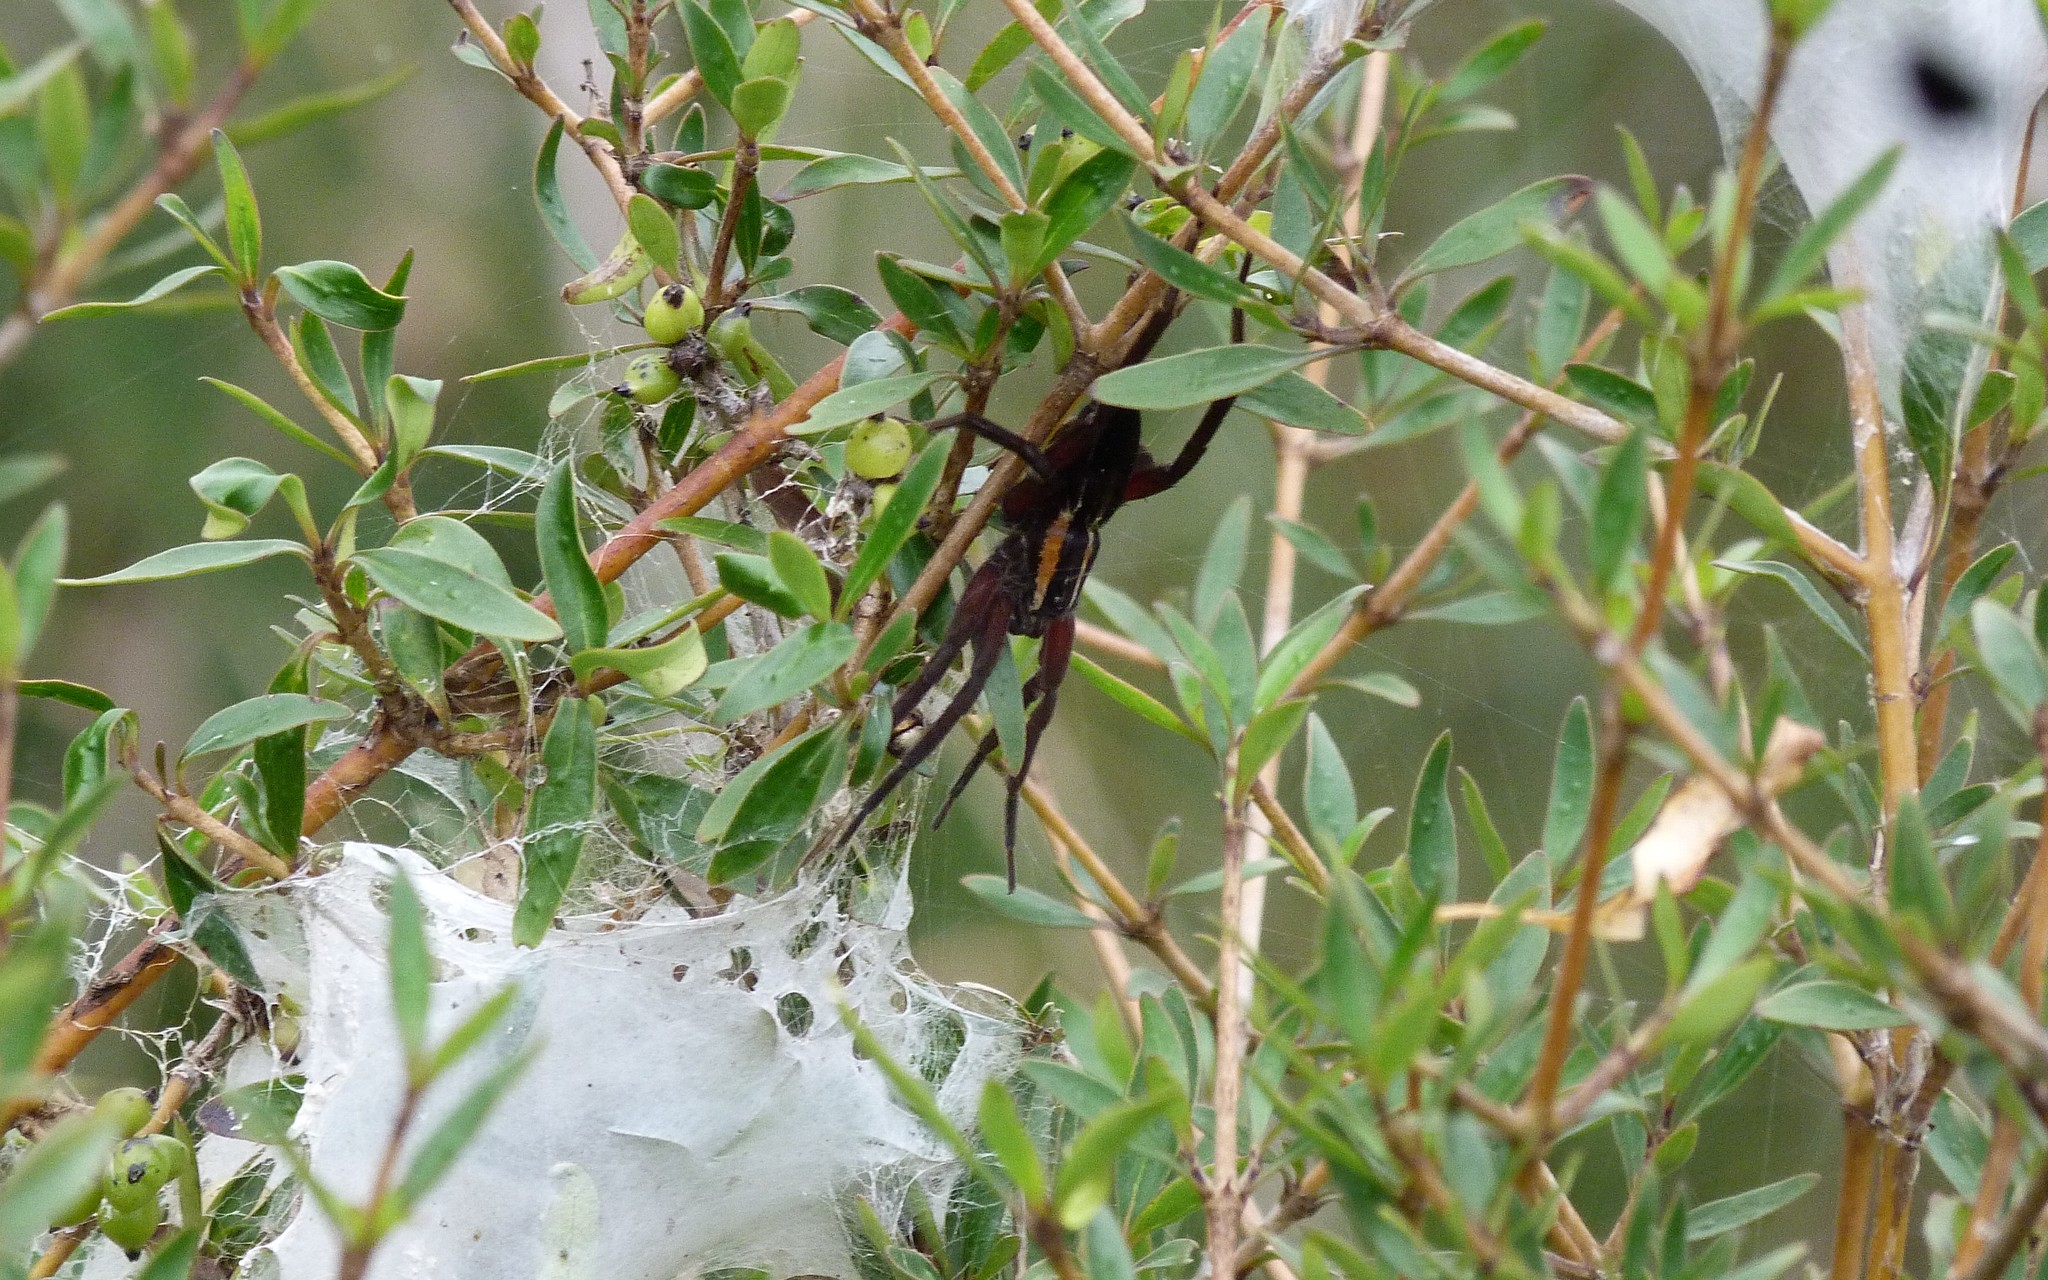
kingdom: Animalia
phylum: Arthropoda
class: Arachnida
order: Araneae
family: Pisauridae
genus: Dolomedes
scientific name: Dolomedes minor
